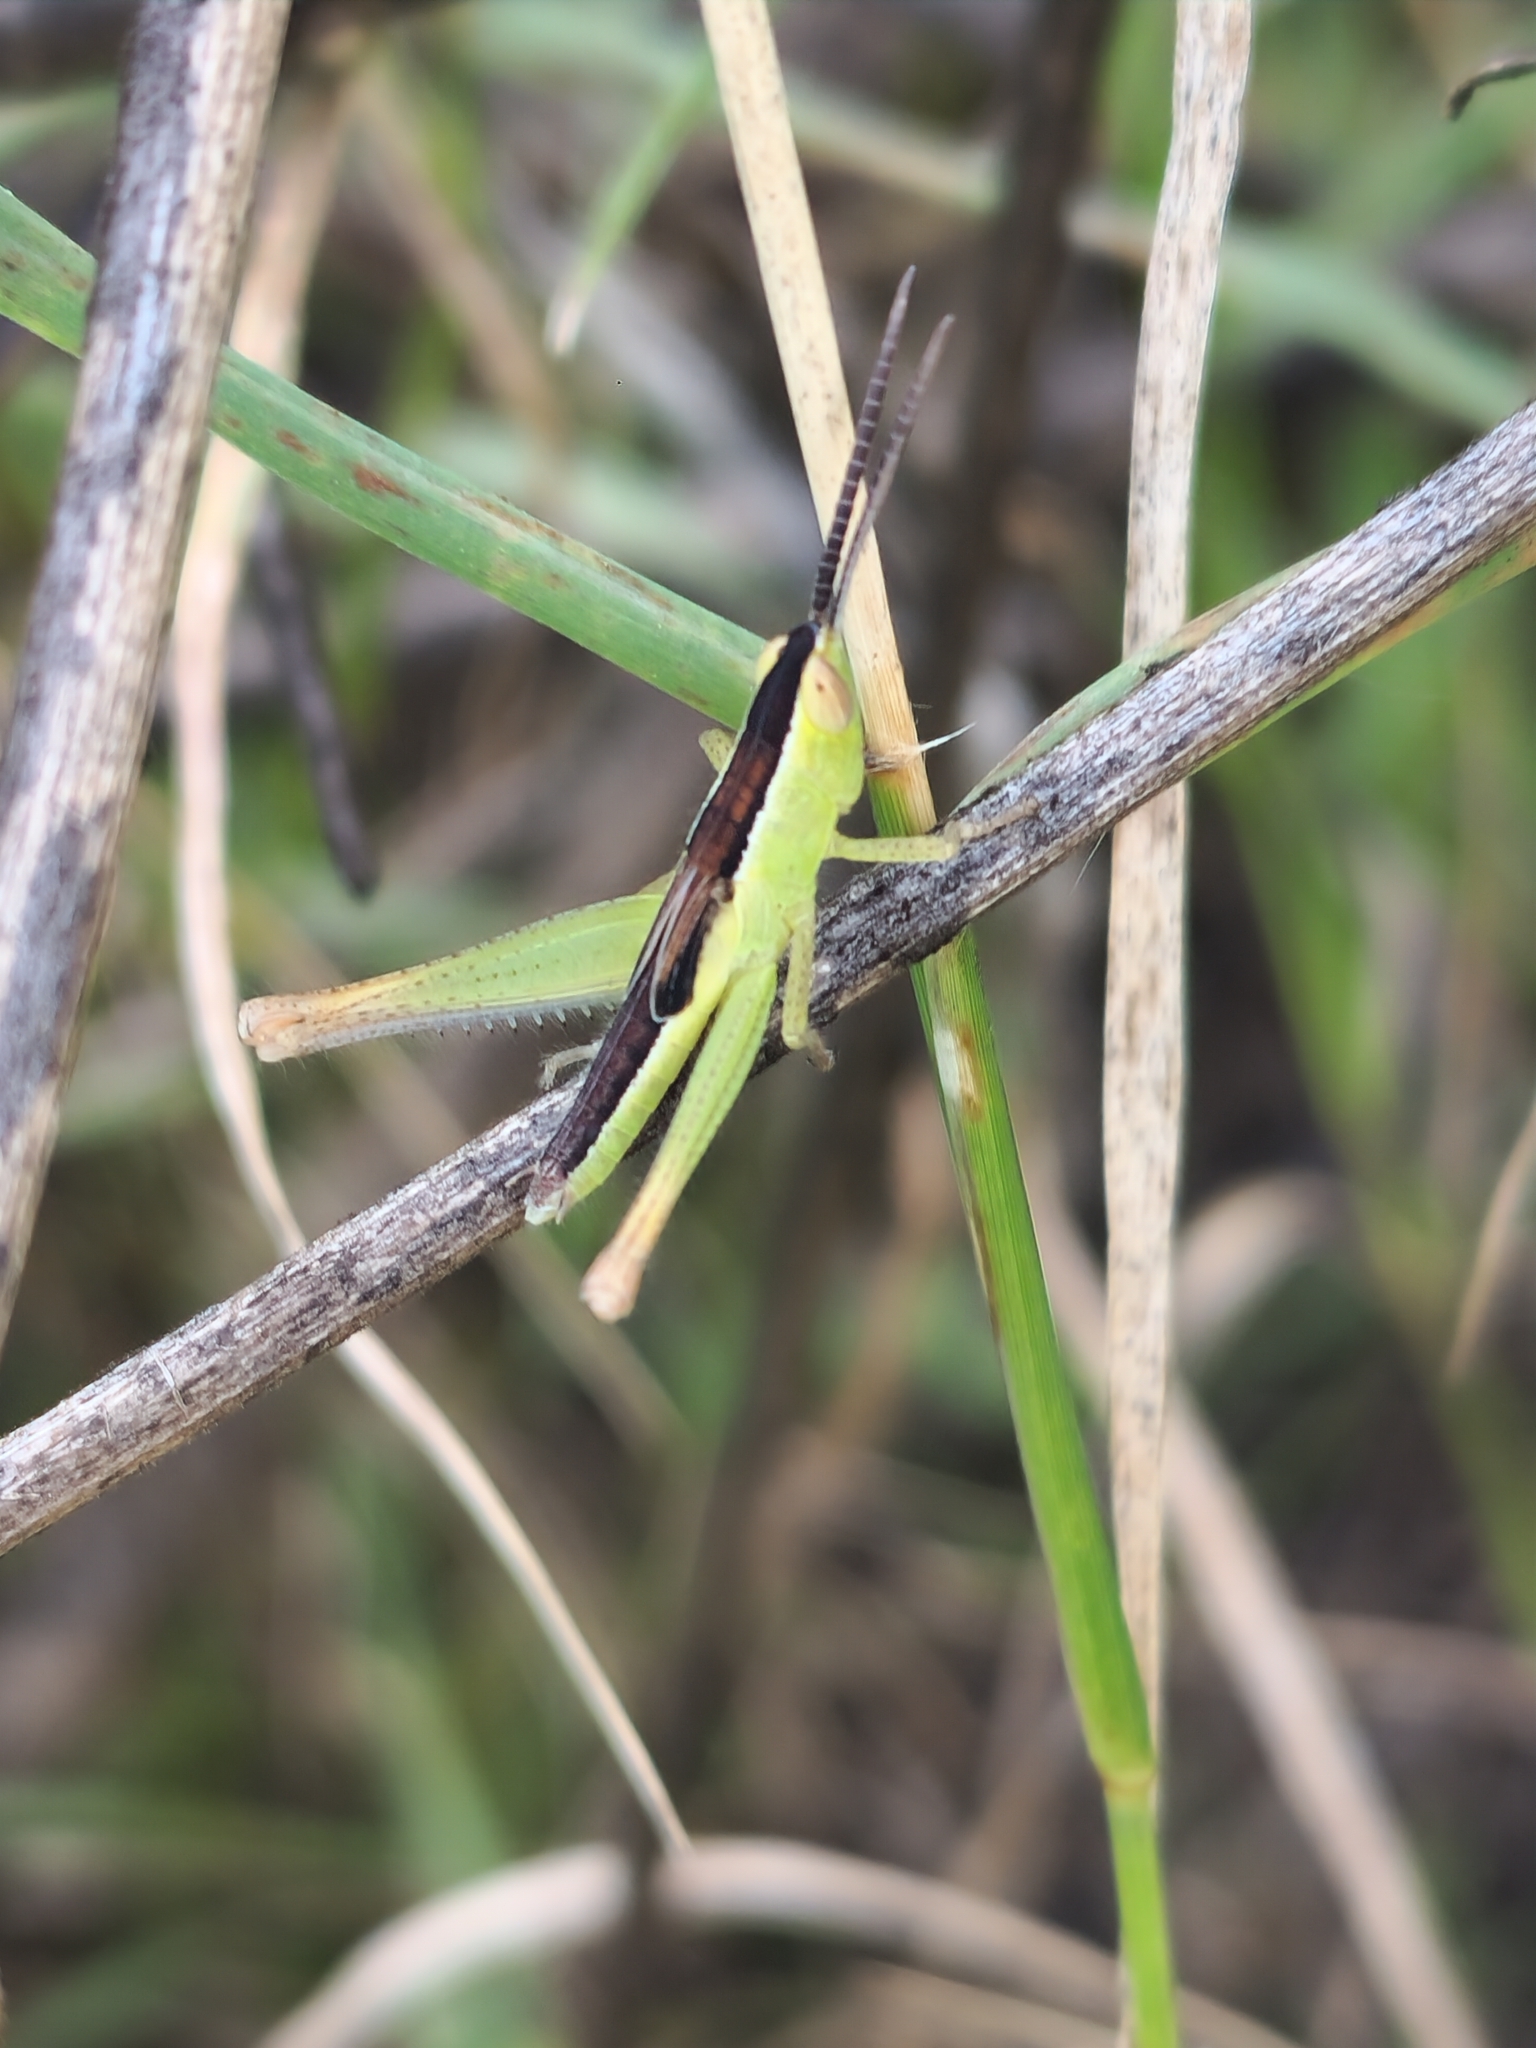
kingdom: Animalia
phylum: Arthropoda
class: Insecta
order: Orthoptera
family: Acrididae
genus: Staurorhectus
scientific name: Staurorhectus longicornis
